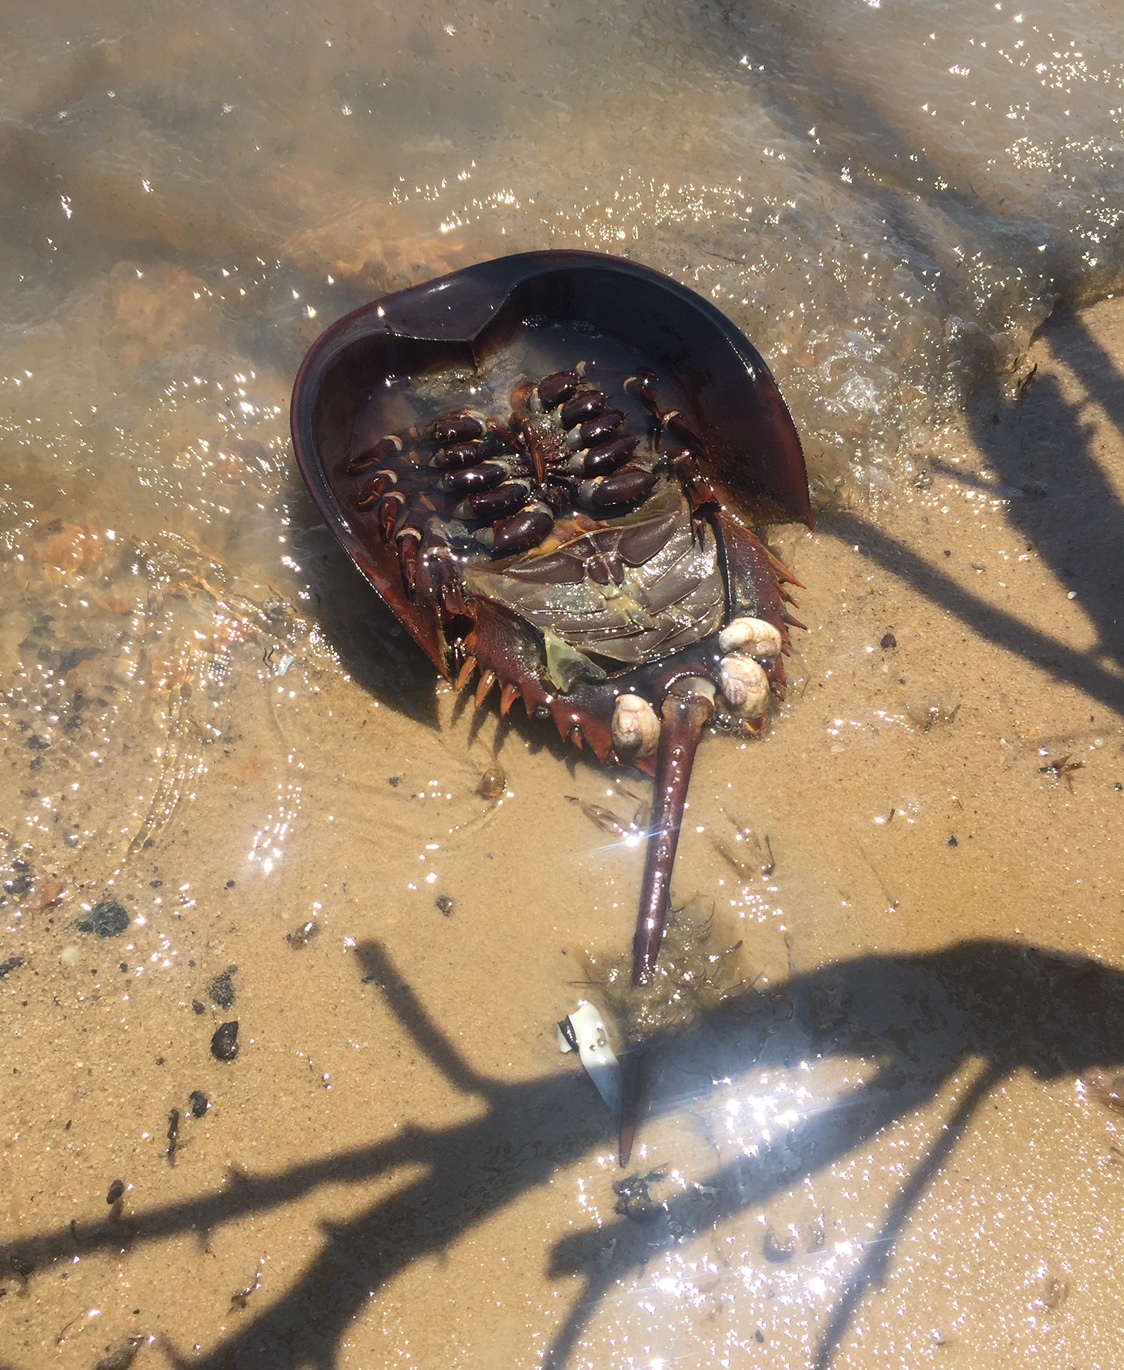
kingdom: Animalia
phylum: Arthropoda
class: Merostomata
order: Xiphosurida
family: Limulidae
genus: Limulus
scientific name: Limulus polyphemus
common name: Horseshoe crab
